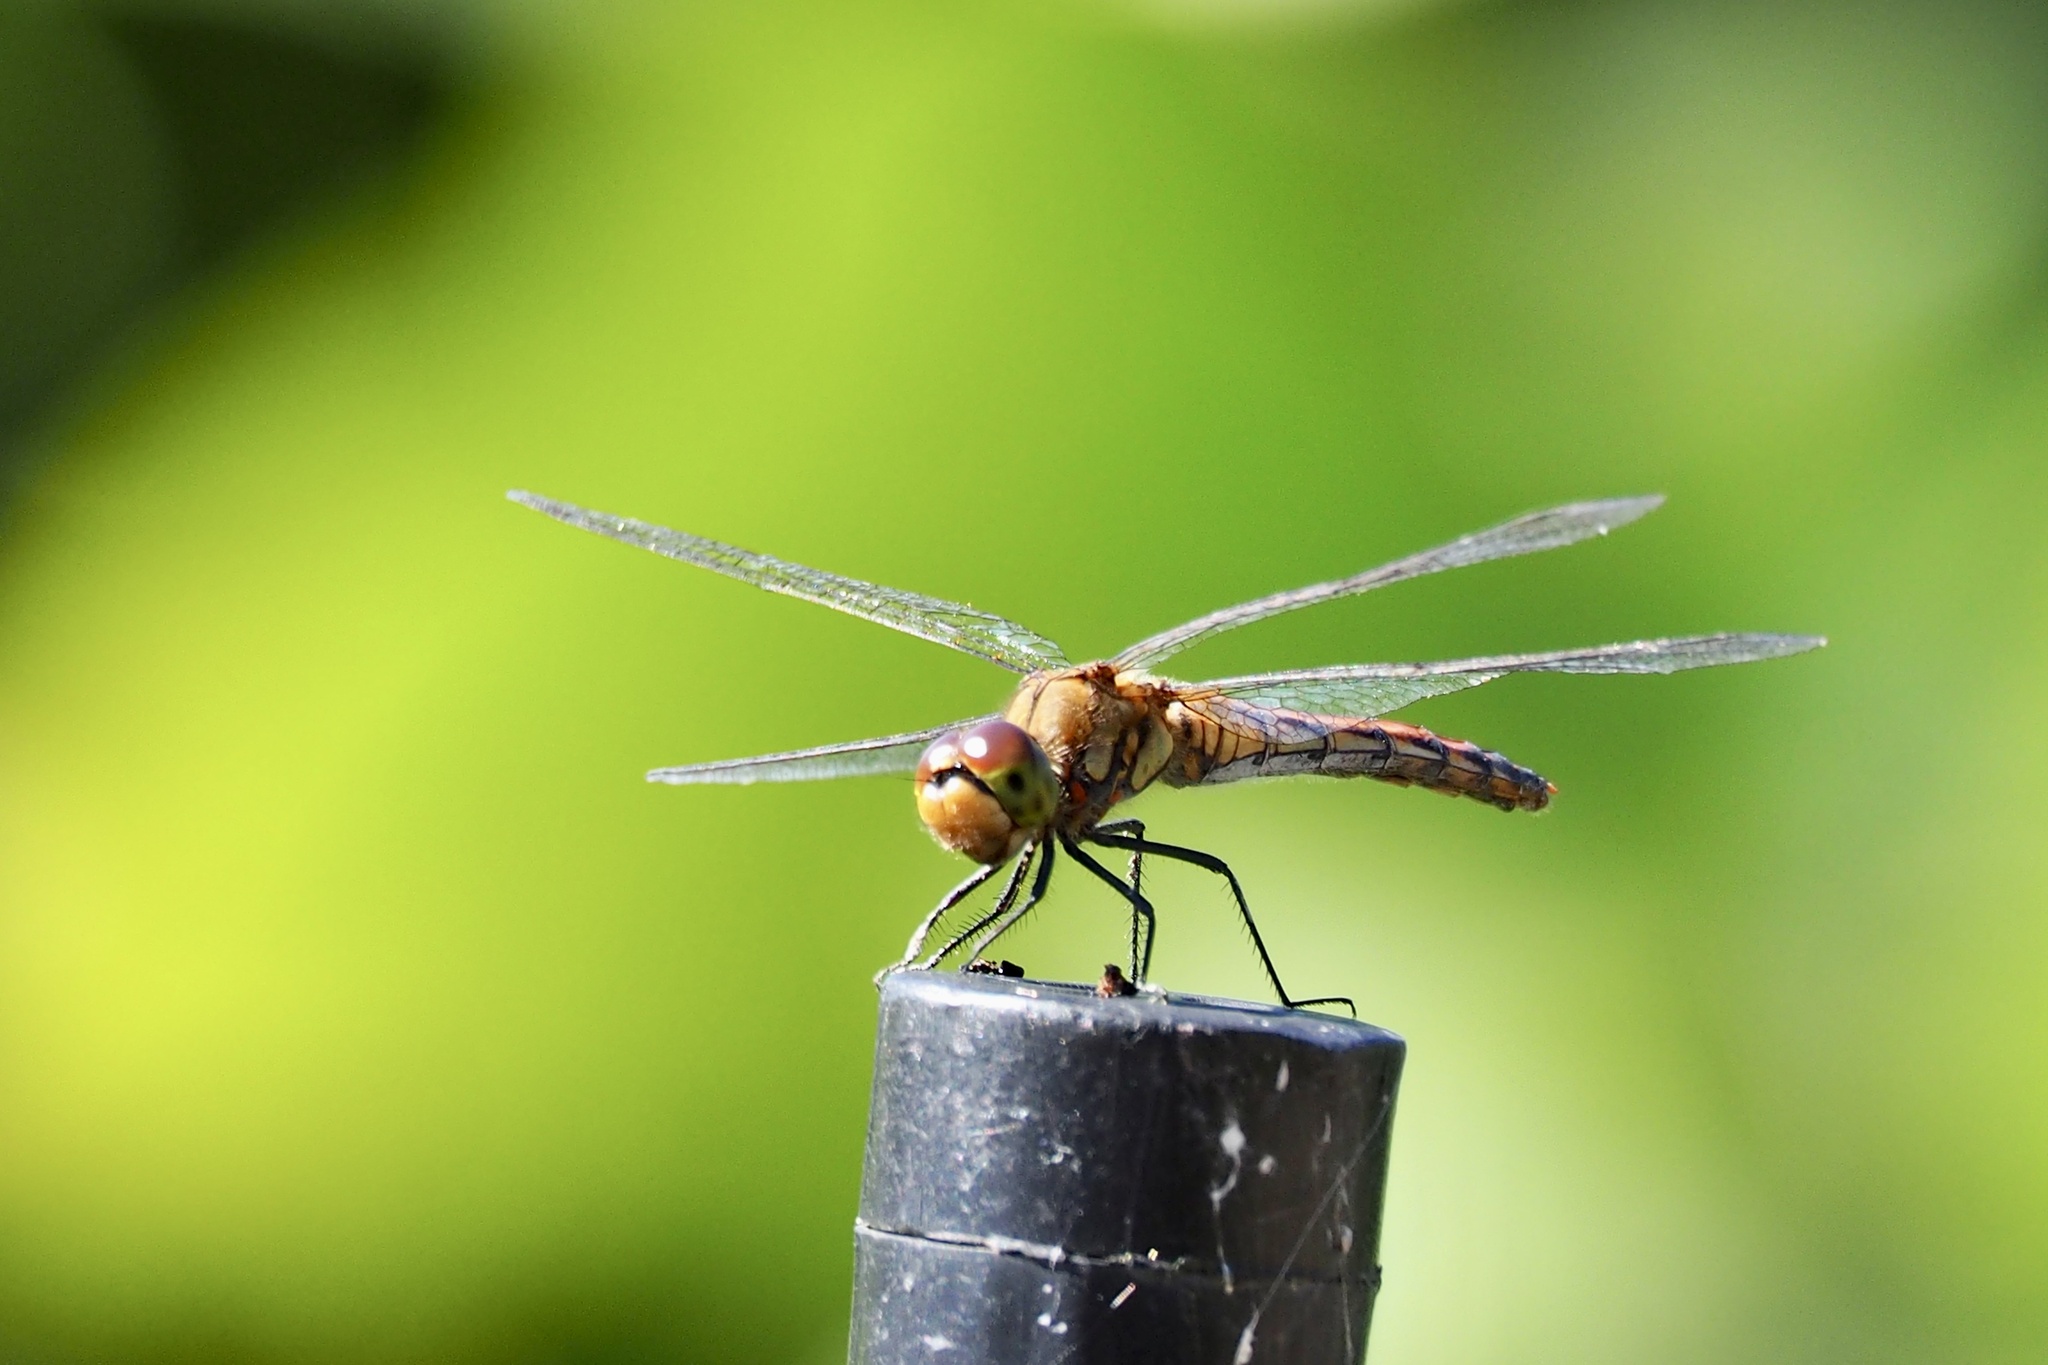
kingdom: Animalia
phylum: Arthropoda
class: Insecta
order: Odonata
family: Libellulidae
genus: Sympetrum
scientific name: Sympetrum frequens
